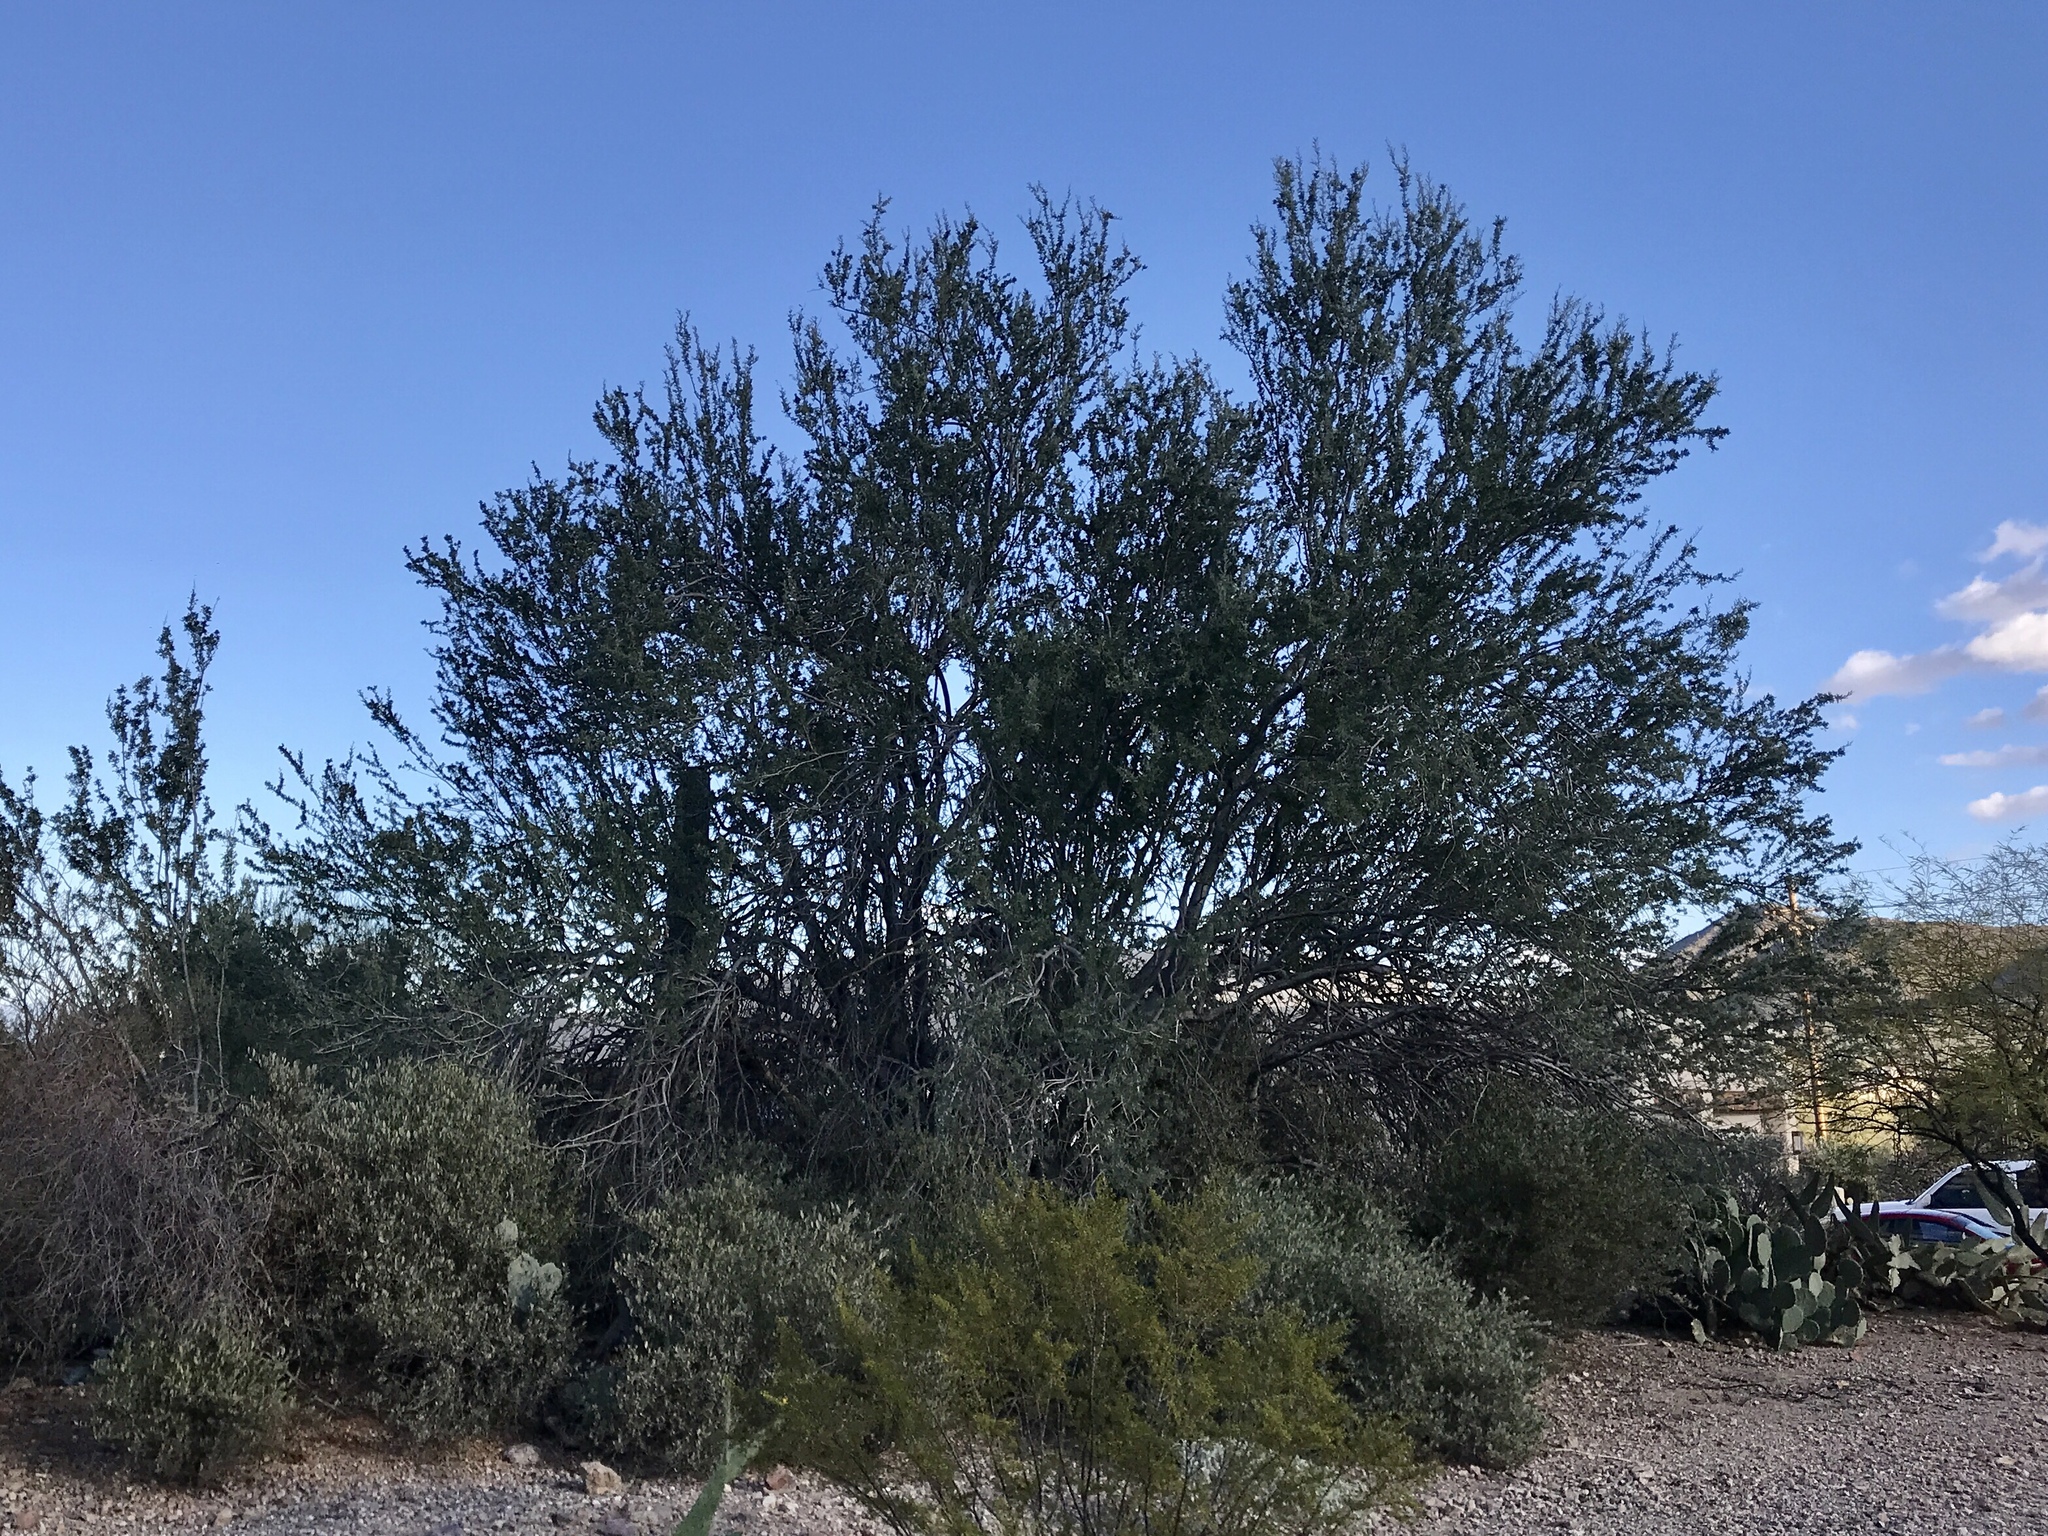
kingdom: Plantae
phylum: Tracheophyta
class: Magnoliopsida
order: Fabales
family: Fabaceae
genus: Olneya
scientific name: Olneya tesota
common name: Desert ironwood
